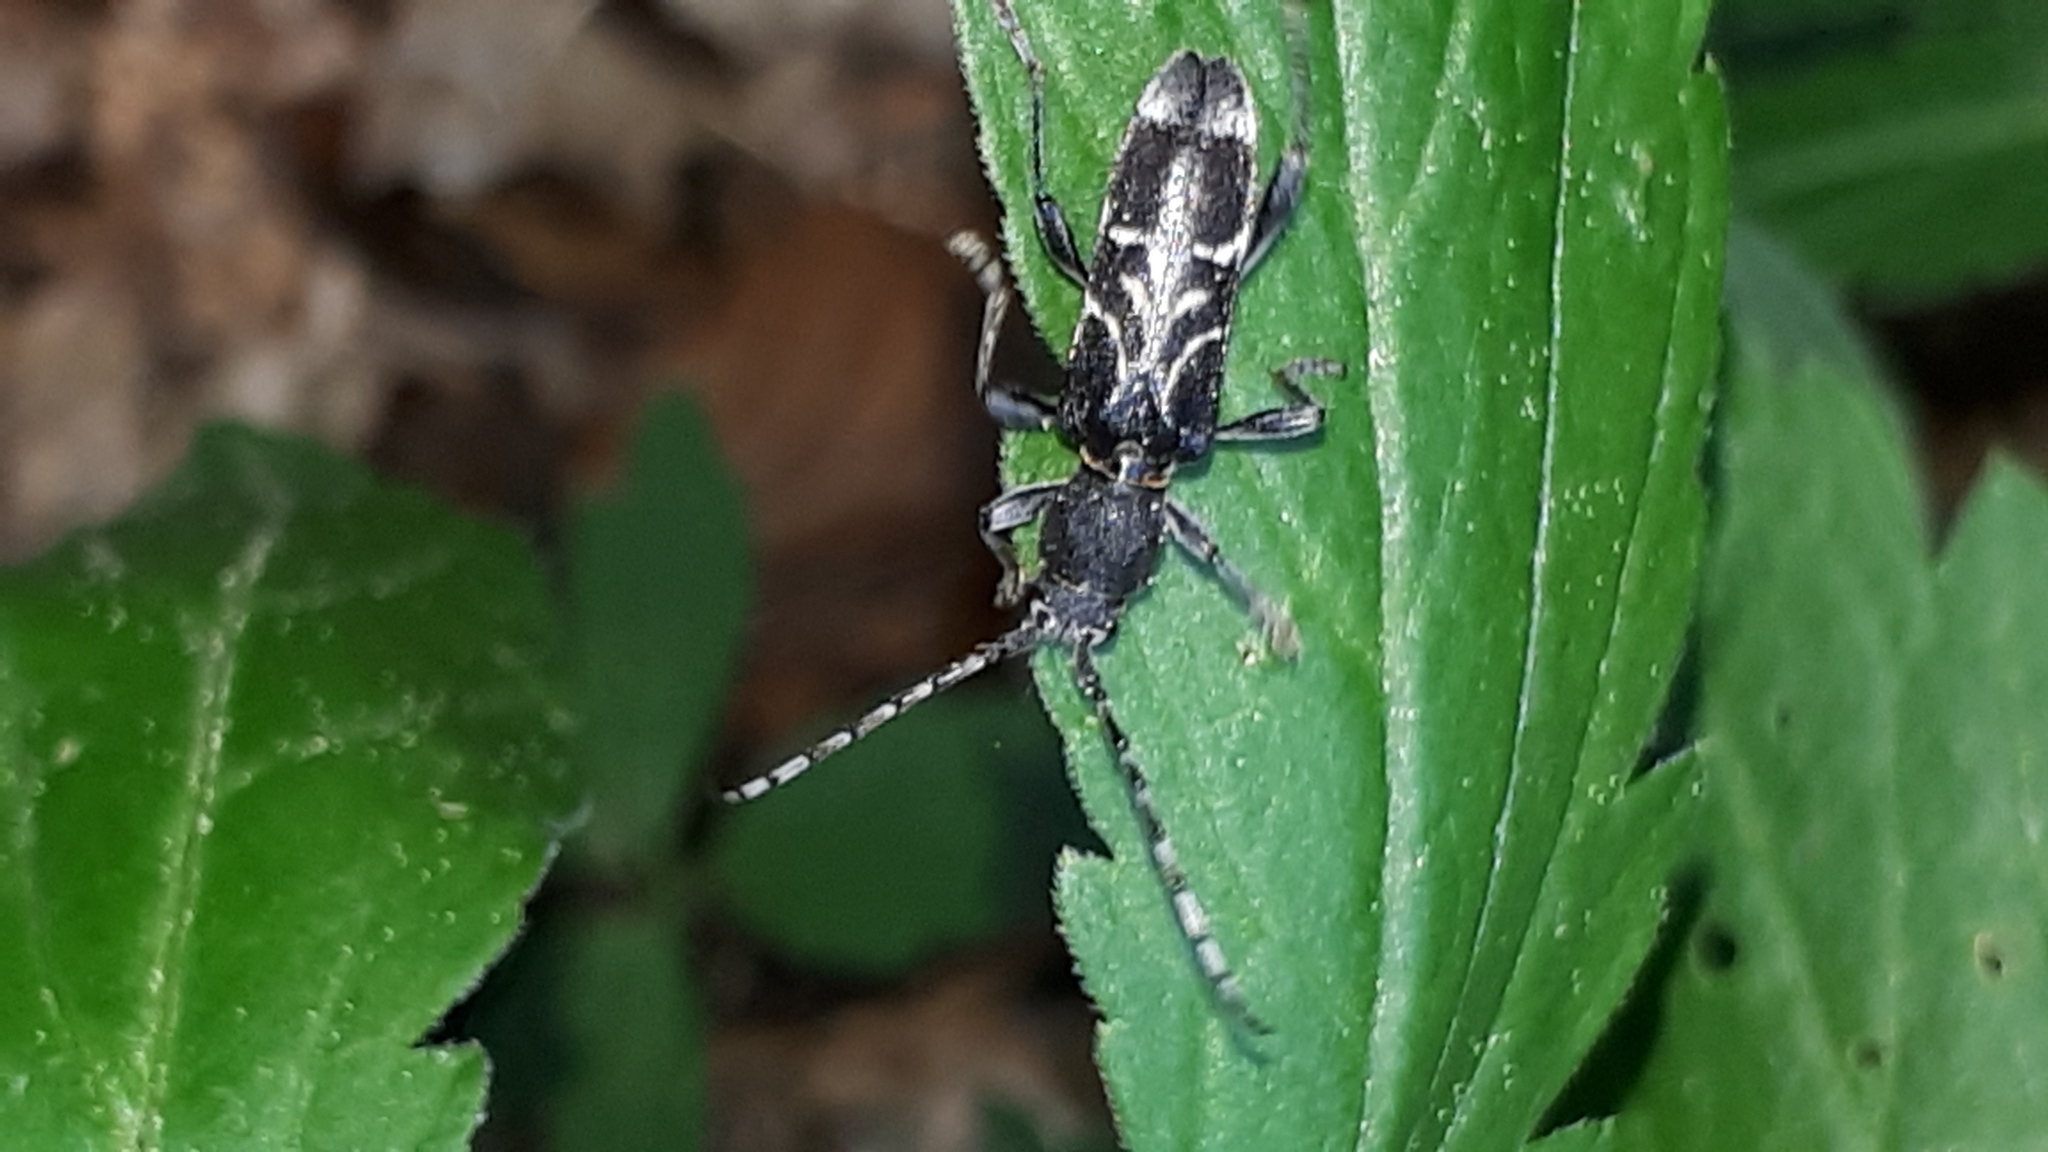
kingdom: Animalia
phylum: Arthropoda
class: Insecta
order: Coleoptera
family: Cerambycidae
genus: Anaglyptus
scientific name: Anaglyptus mysticus
